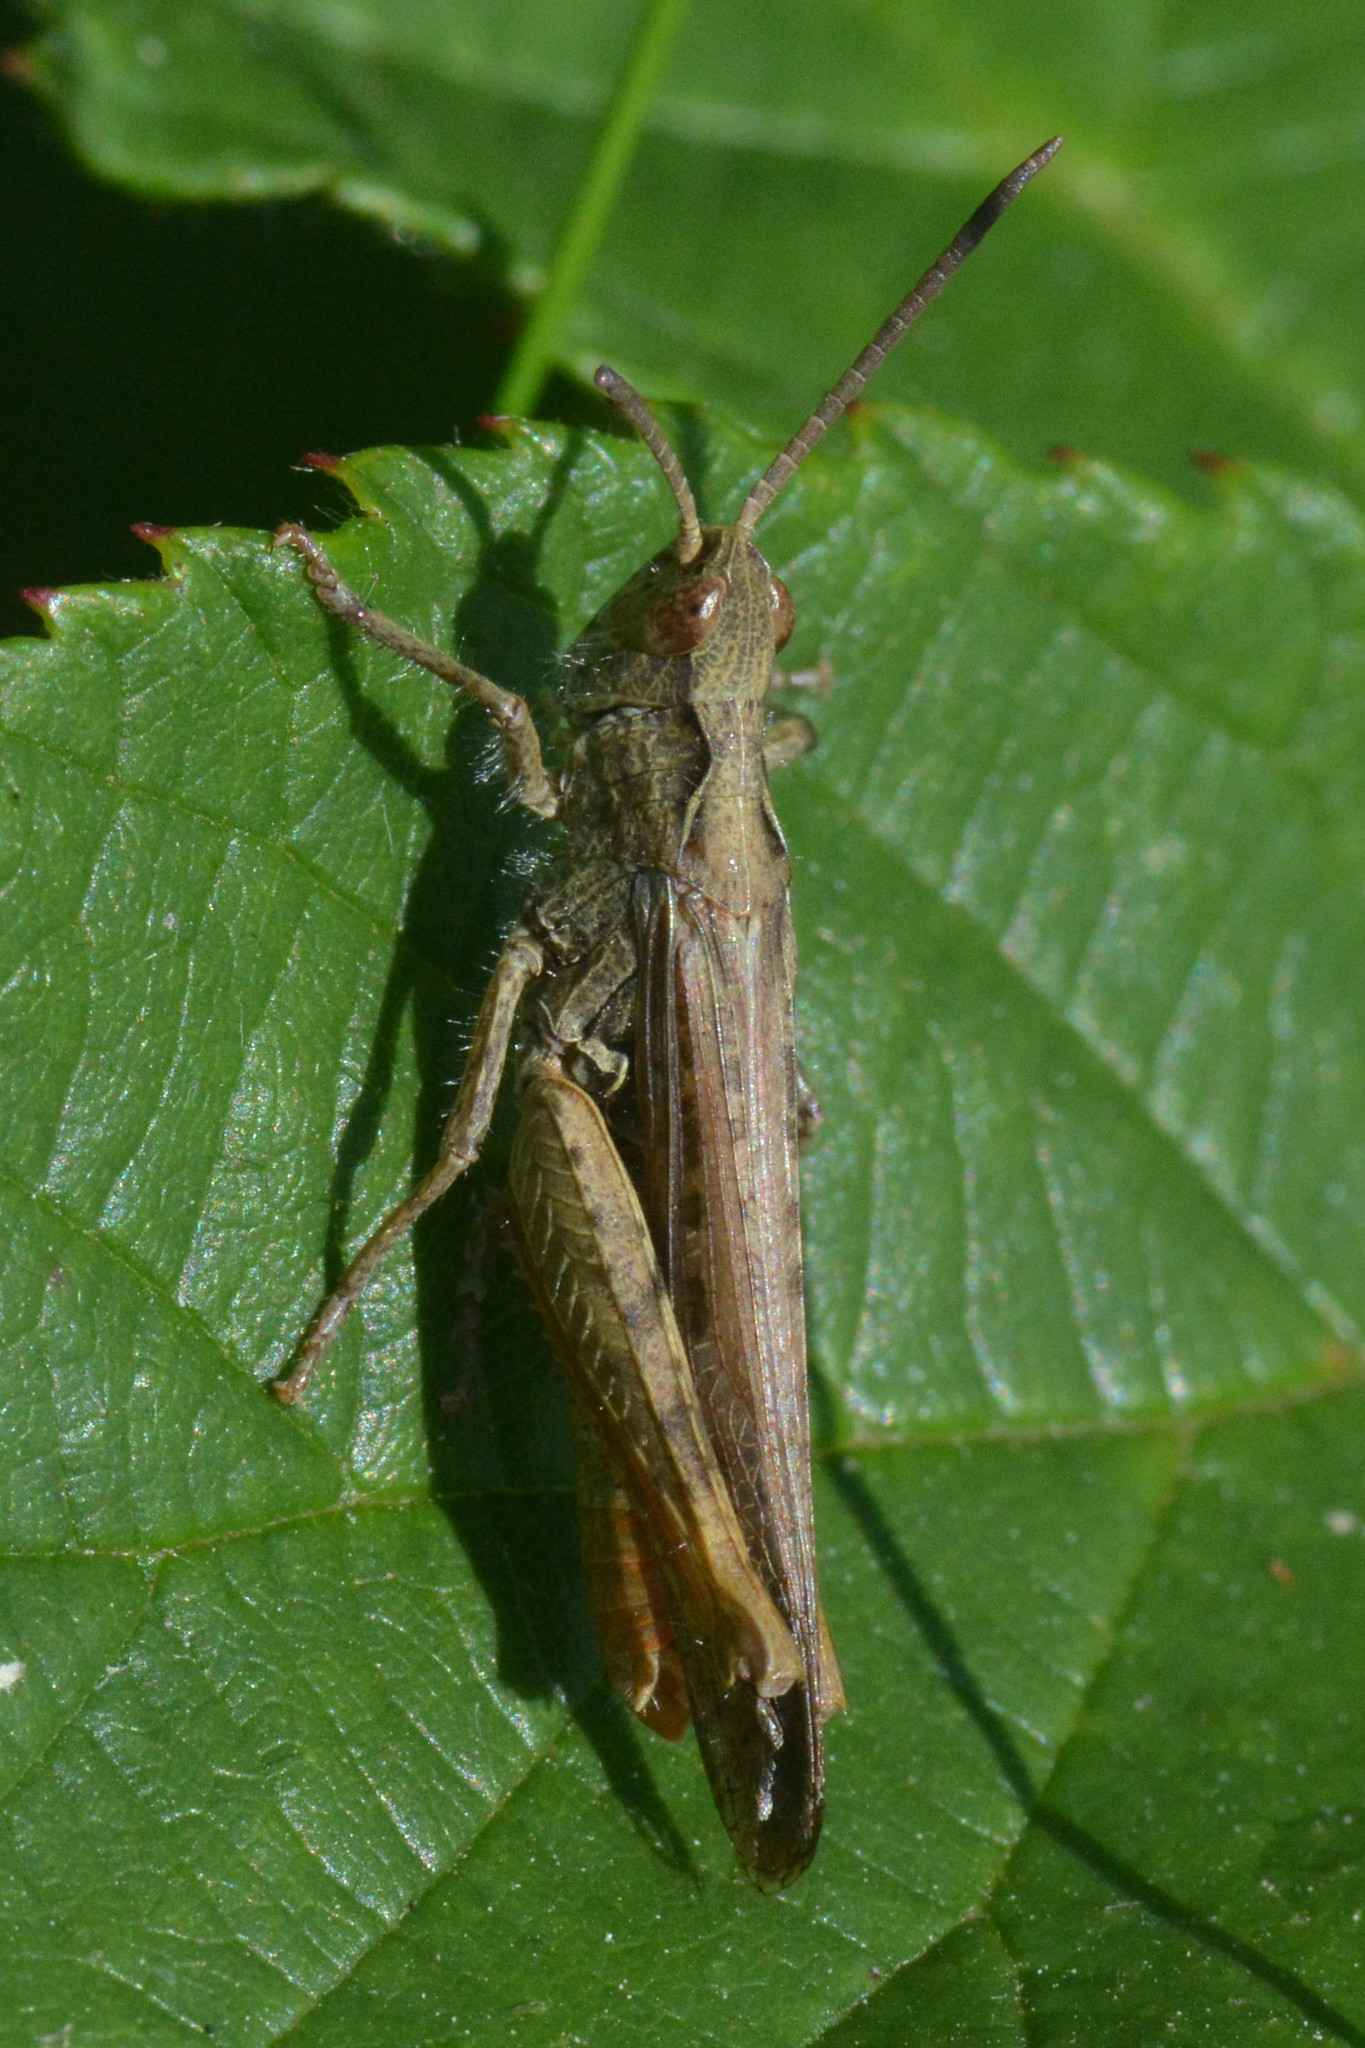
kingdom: Animalia
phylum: Arthropoda
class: Insecta
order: Orthoptera
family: Acrididae
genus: Chorthippus
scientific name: Chorthippus brunneus
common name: Field grasshopper
